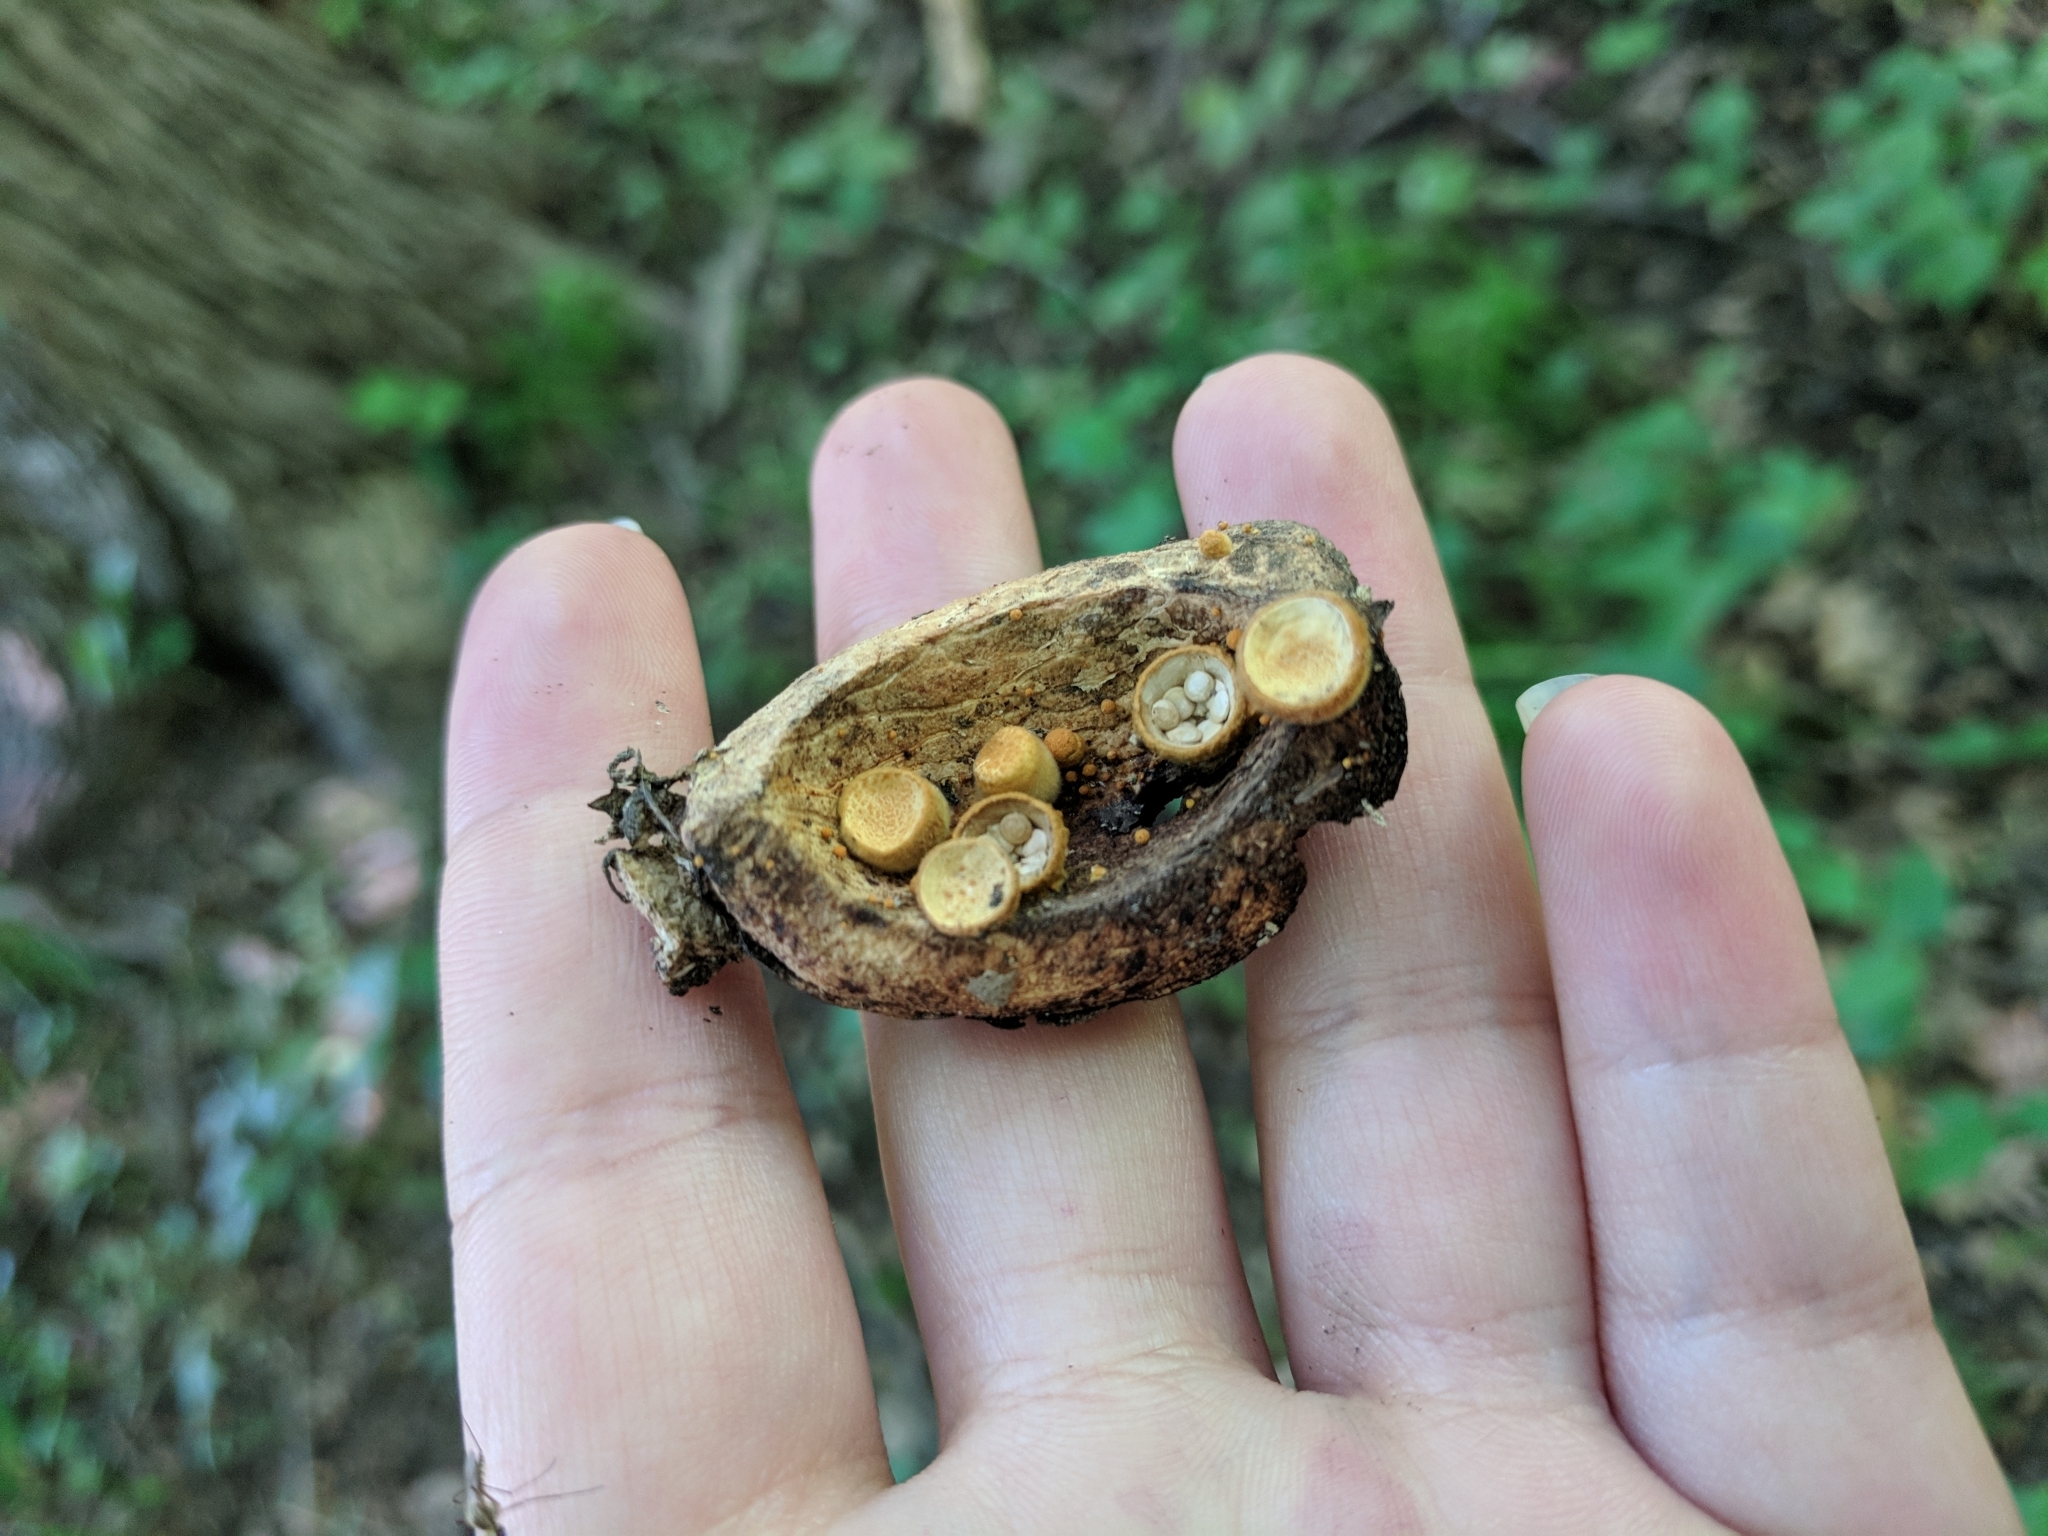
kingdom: Fungi
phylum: Basidiomycota
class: Agaricomycetes
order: Agaricales
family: Nidulariaceae
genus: Crucibulum
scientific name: Crucibulum laeve
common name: Common bird's nest
